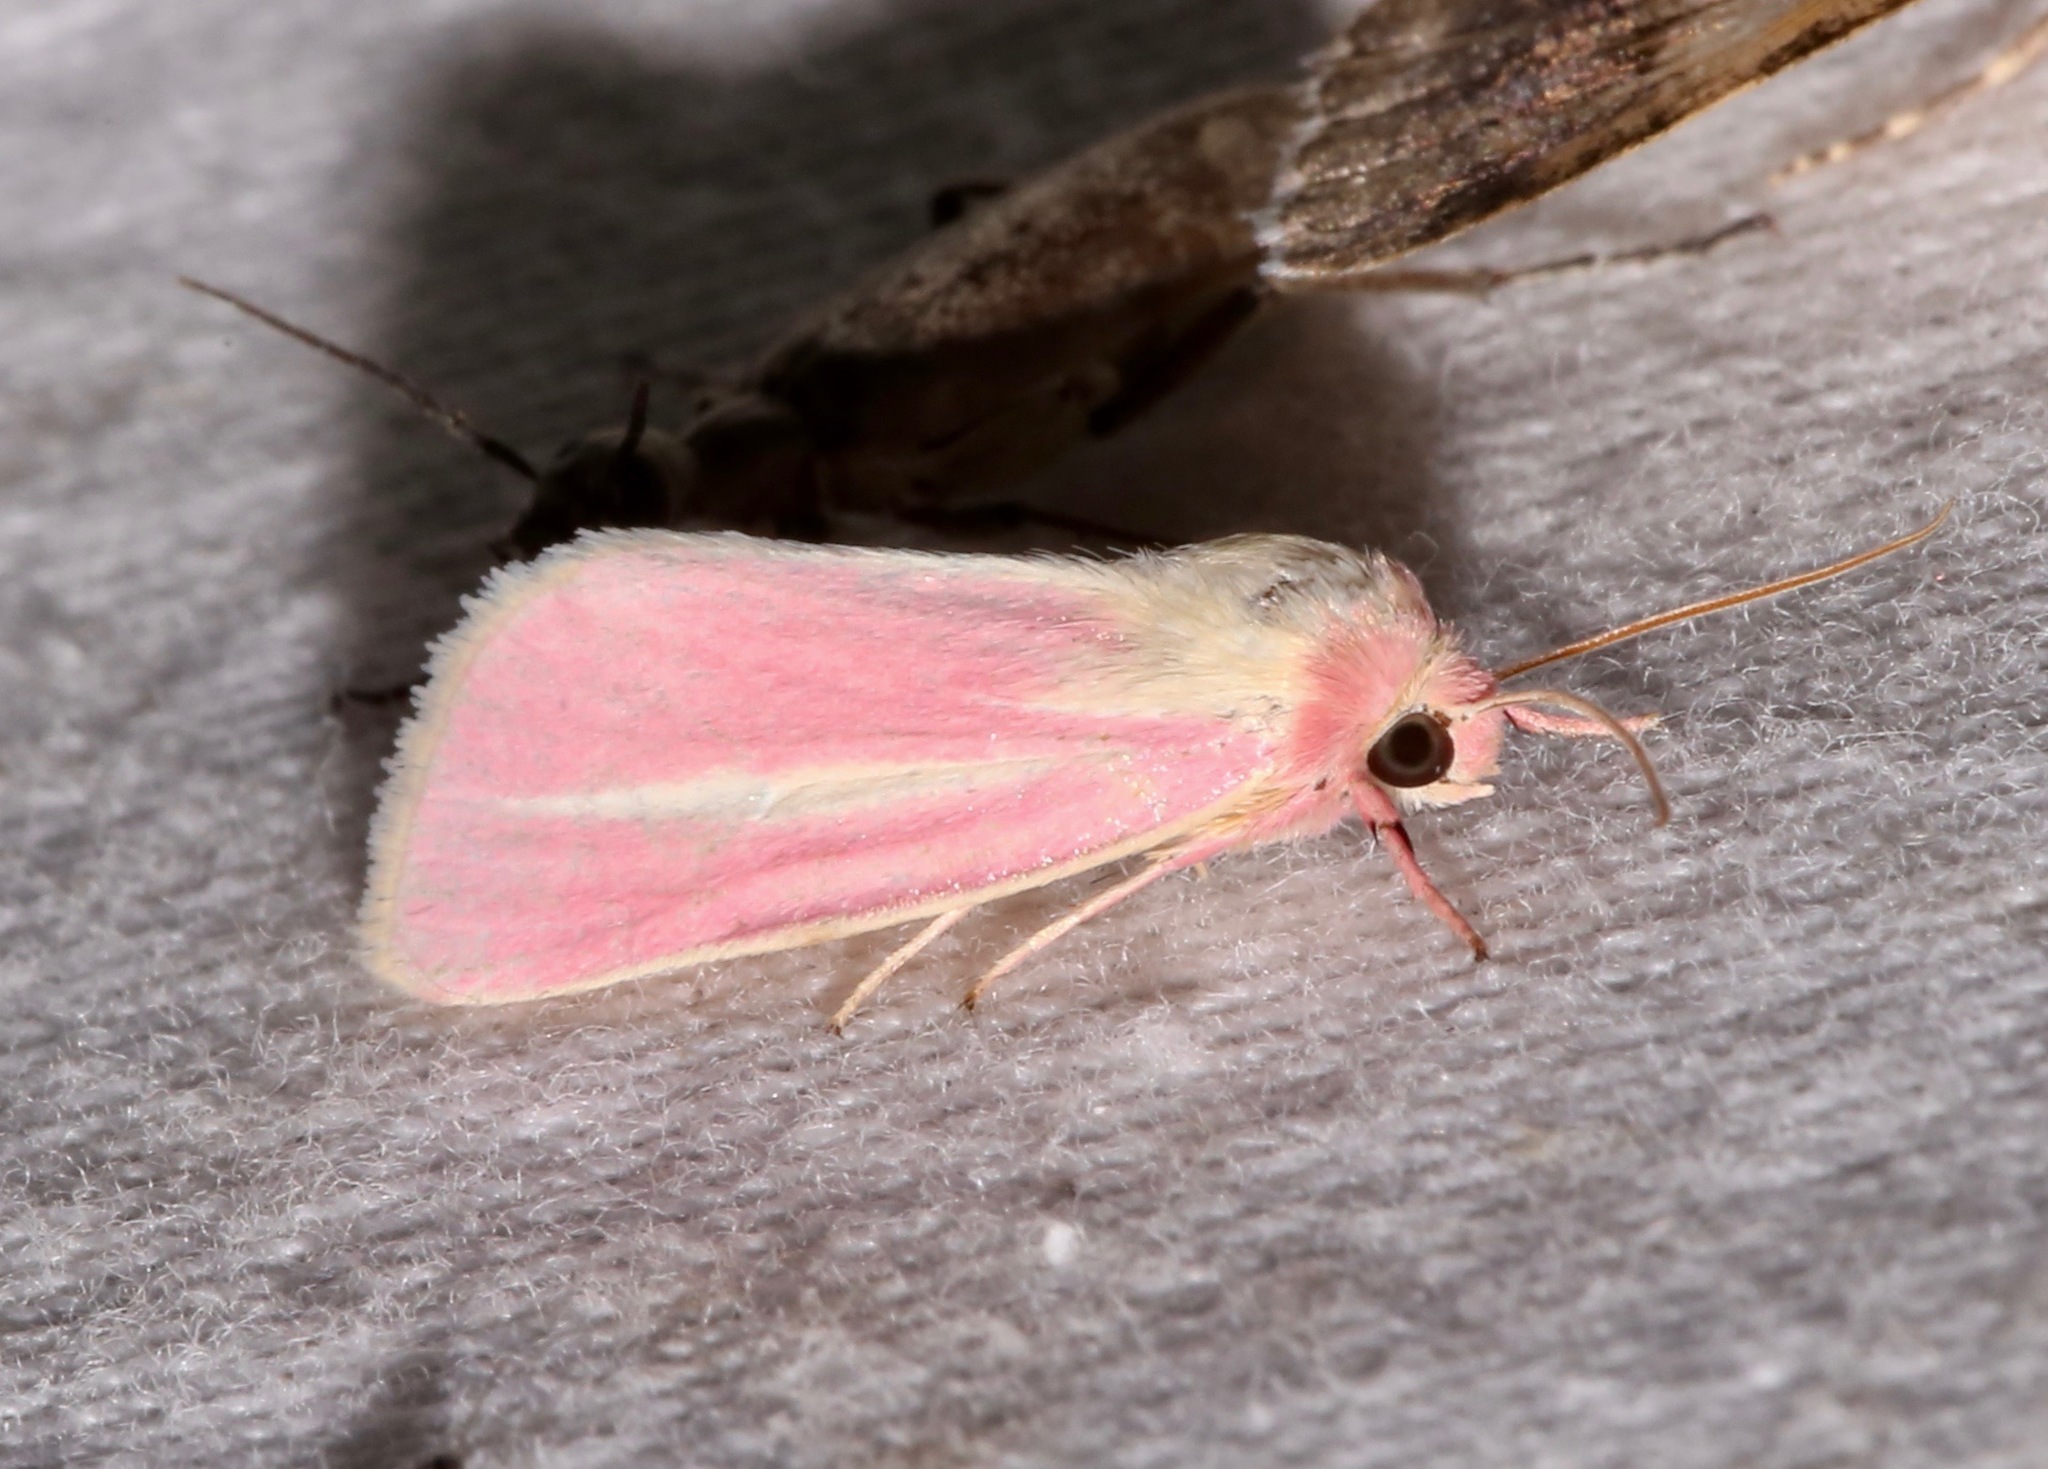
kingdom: Animalia
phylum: Arthropoda
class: Insecta
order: Lepidoptera
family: Noctuidae
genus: Heliocheilus
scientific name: Heliocheilus julia
